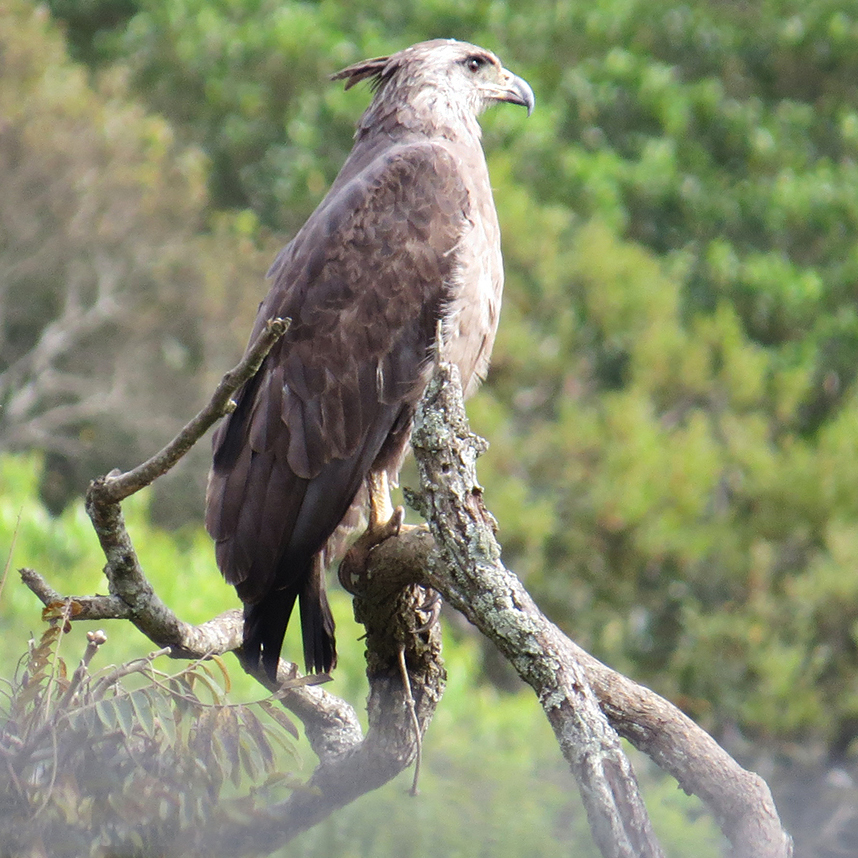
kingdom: Animalia
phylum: Chordata
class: Aves
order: Accipitriformes
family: Accipitridae
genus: Harpyhaliaetus
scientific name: Harpyhaliaetus coronatus
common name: Crowned solitary eagle
